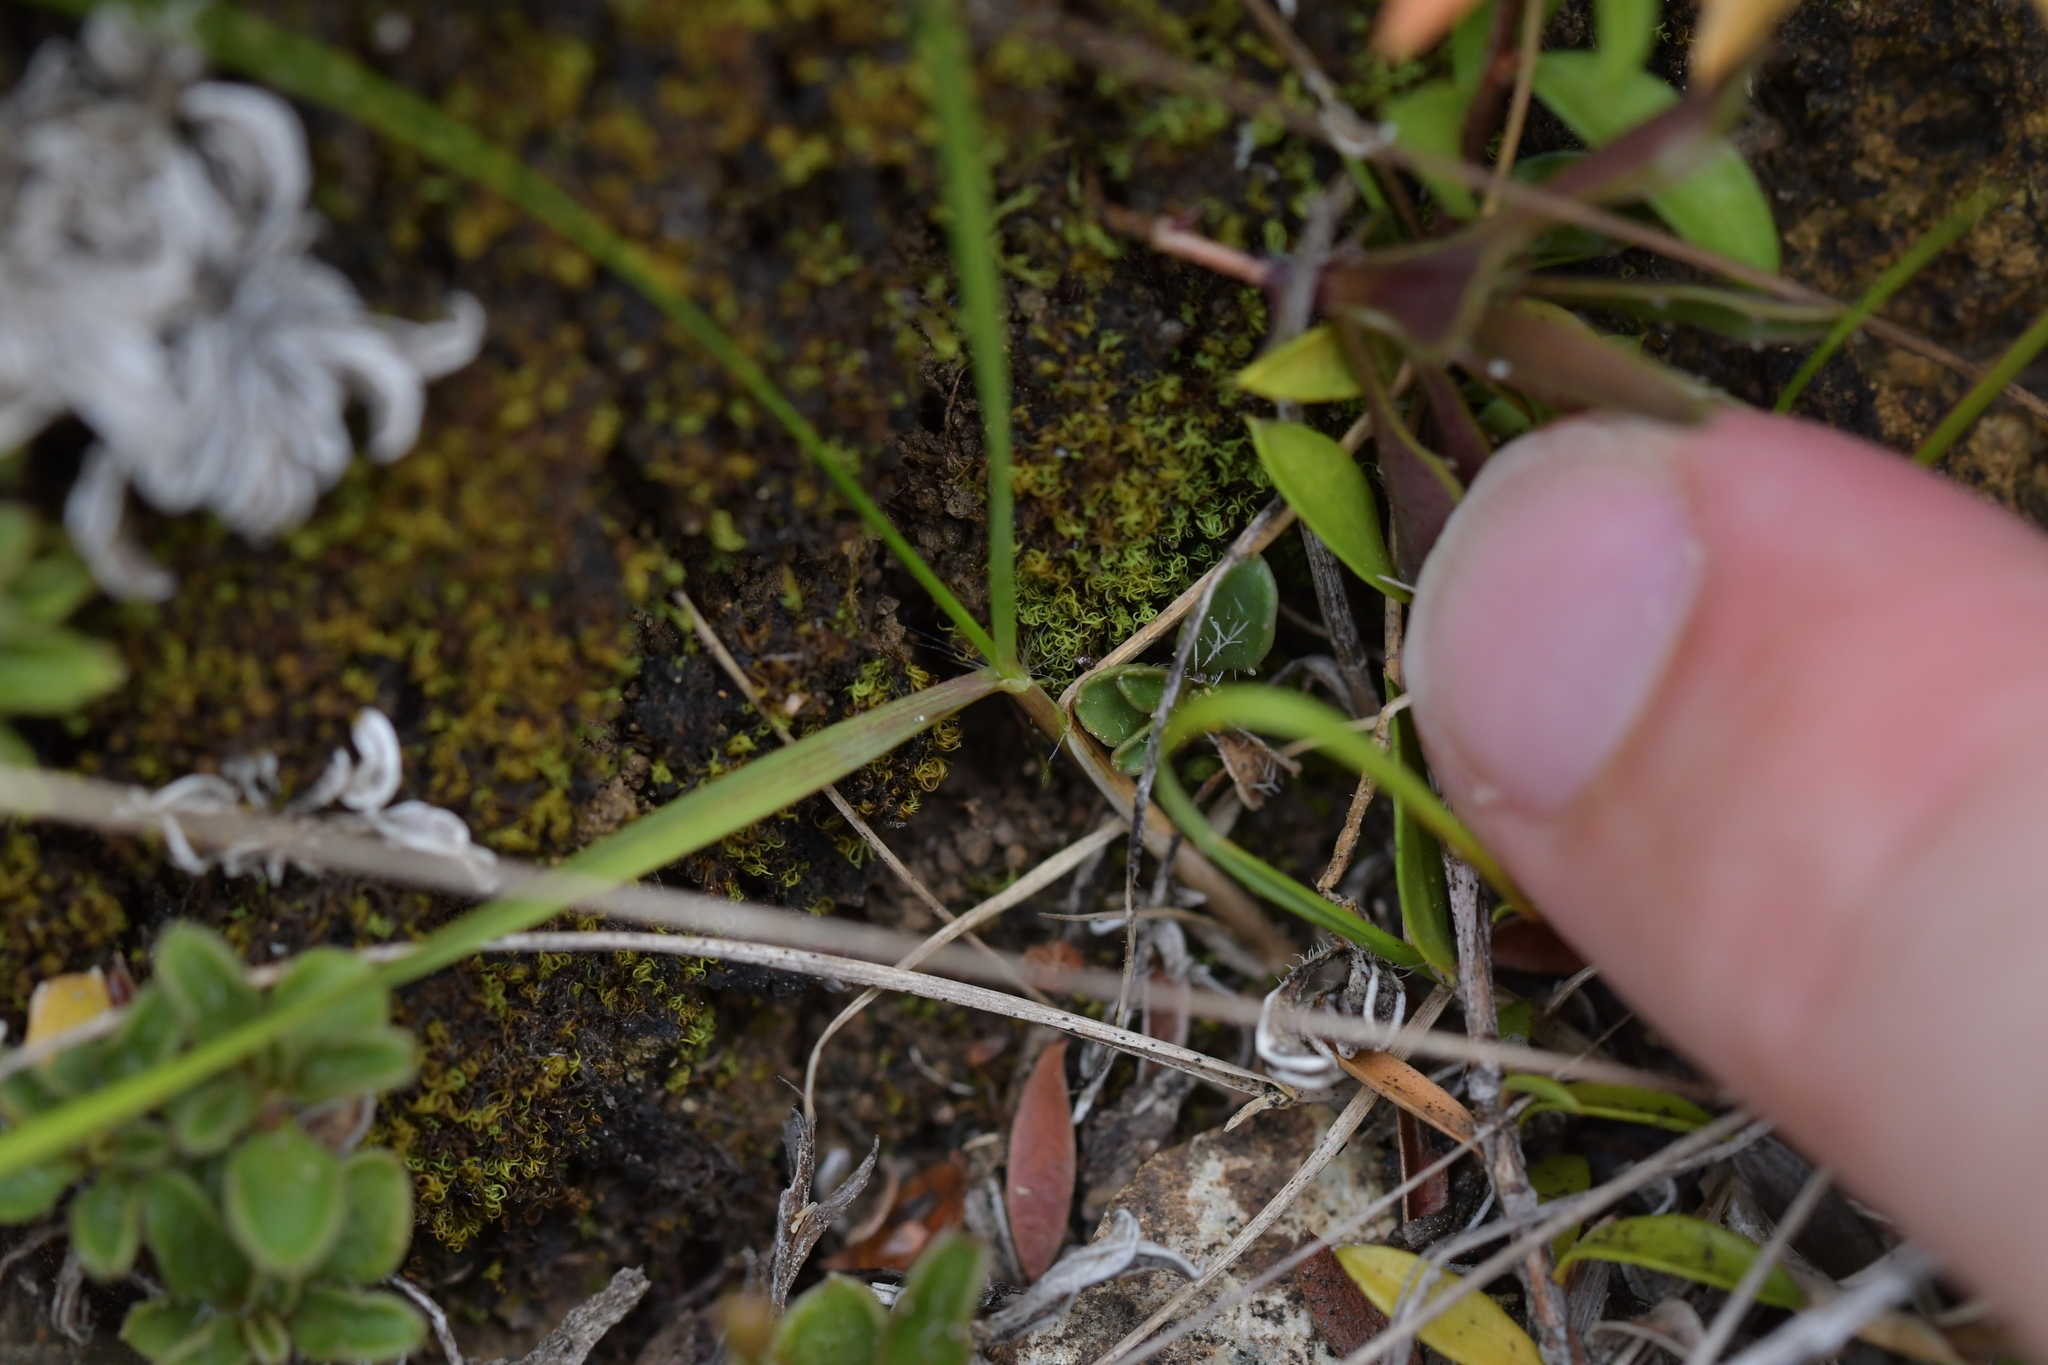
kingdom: Plantae
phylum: Tracheophyta
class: Magnoliopsida
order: Asterales
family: Campanulaceae
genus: Wahlenbergia
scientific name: Wahlenbergia albomarginata
